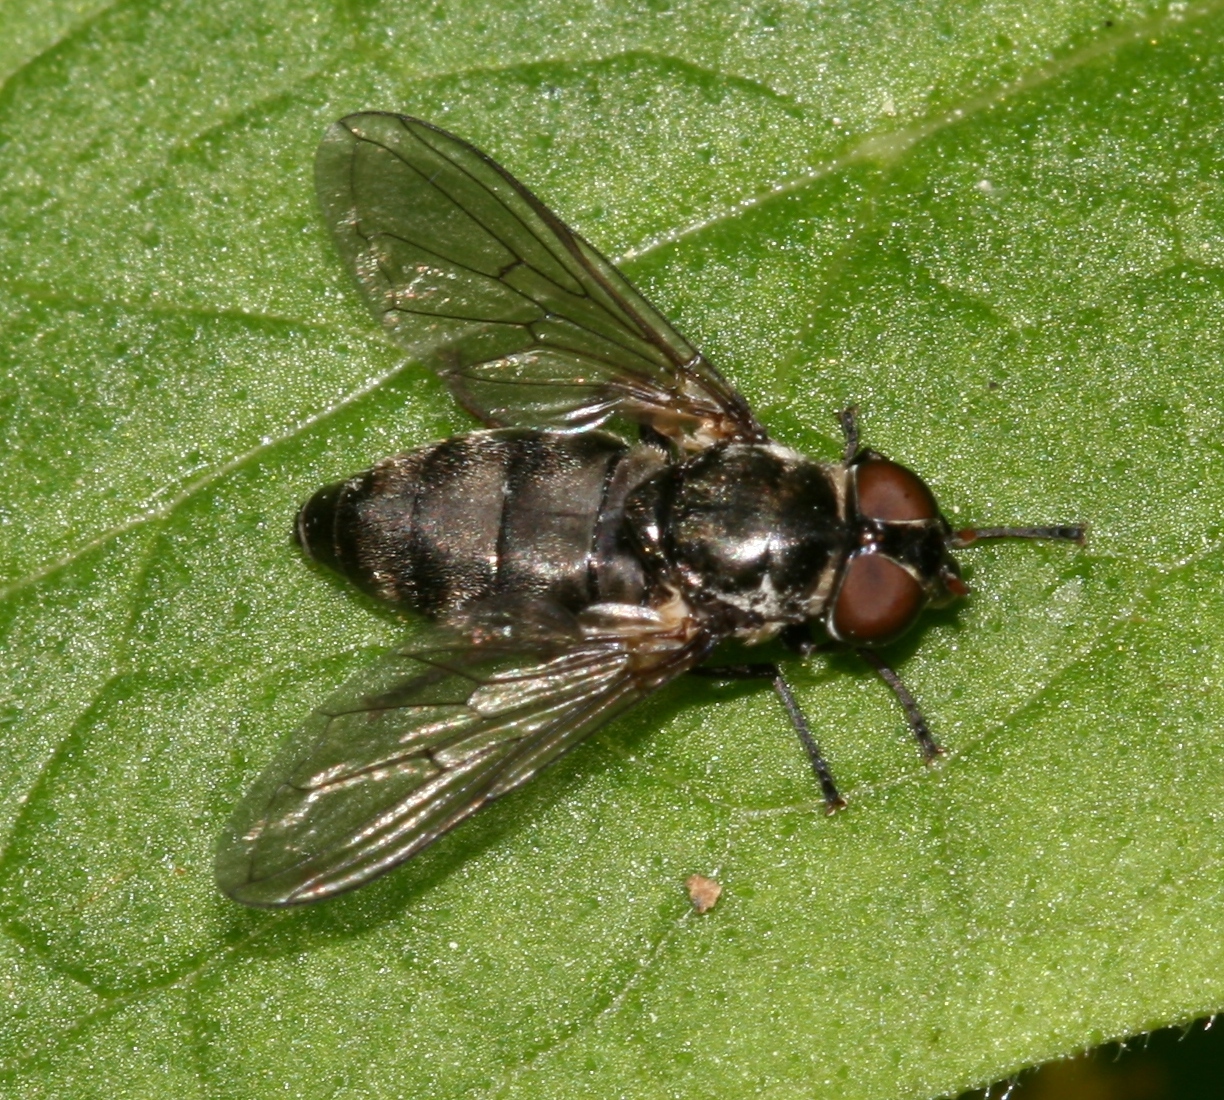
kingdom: Animalia
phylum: Arthropoda
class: Insecta
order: Diptera
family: Syrphidae
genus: Portevinia
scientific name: Portevinia maculata
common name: Ramson's hoverfly
